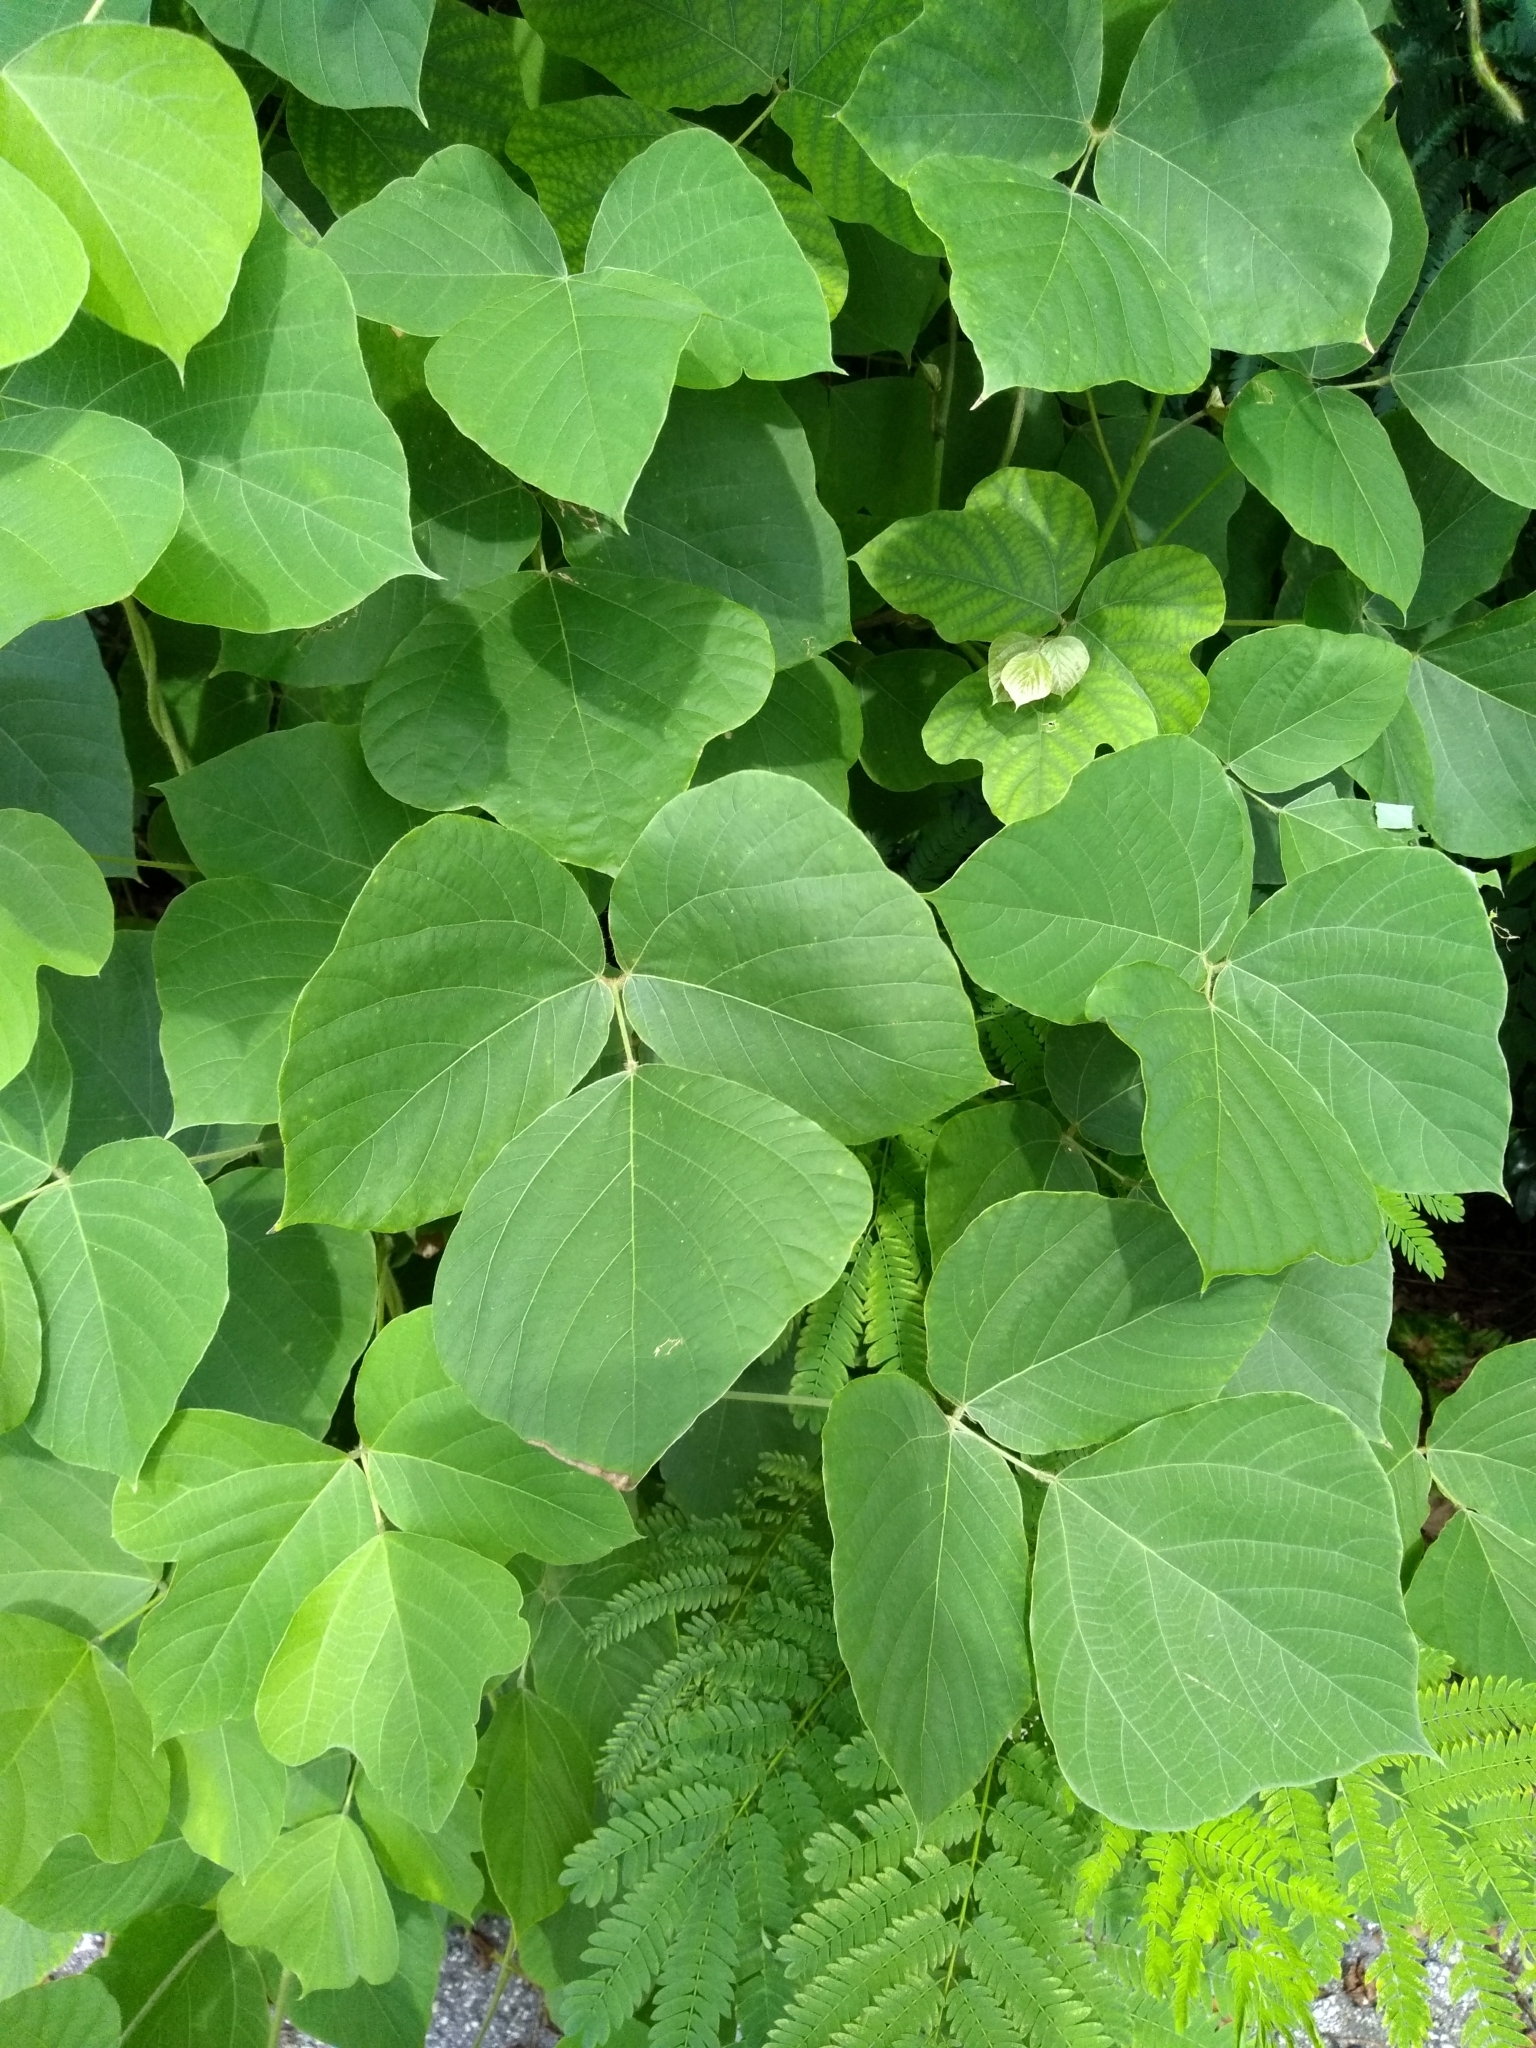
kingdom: Plantae
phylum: Tracheophyta
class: Magnoliopsida
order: Fabales
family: Fabaceae
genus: Pueraria
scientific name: Pueraria montana
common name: Kudzu
